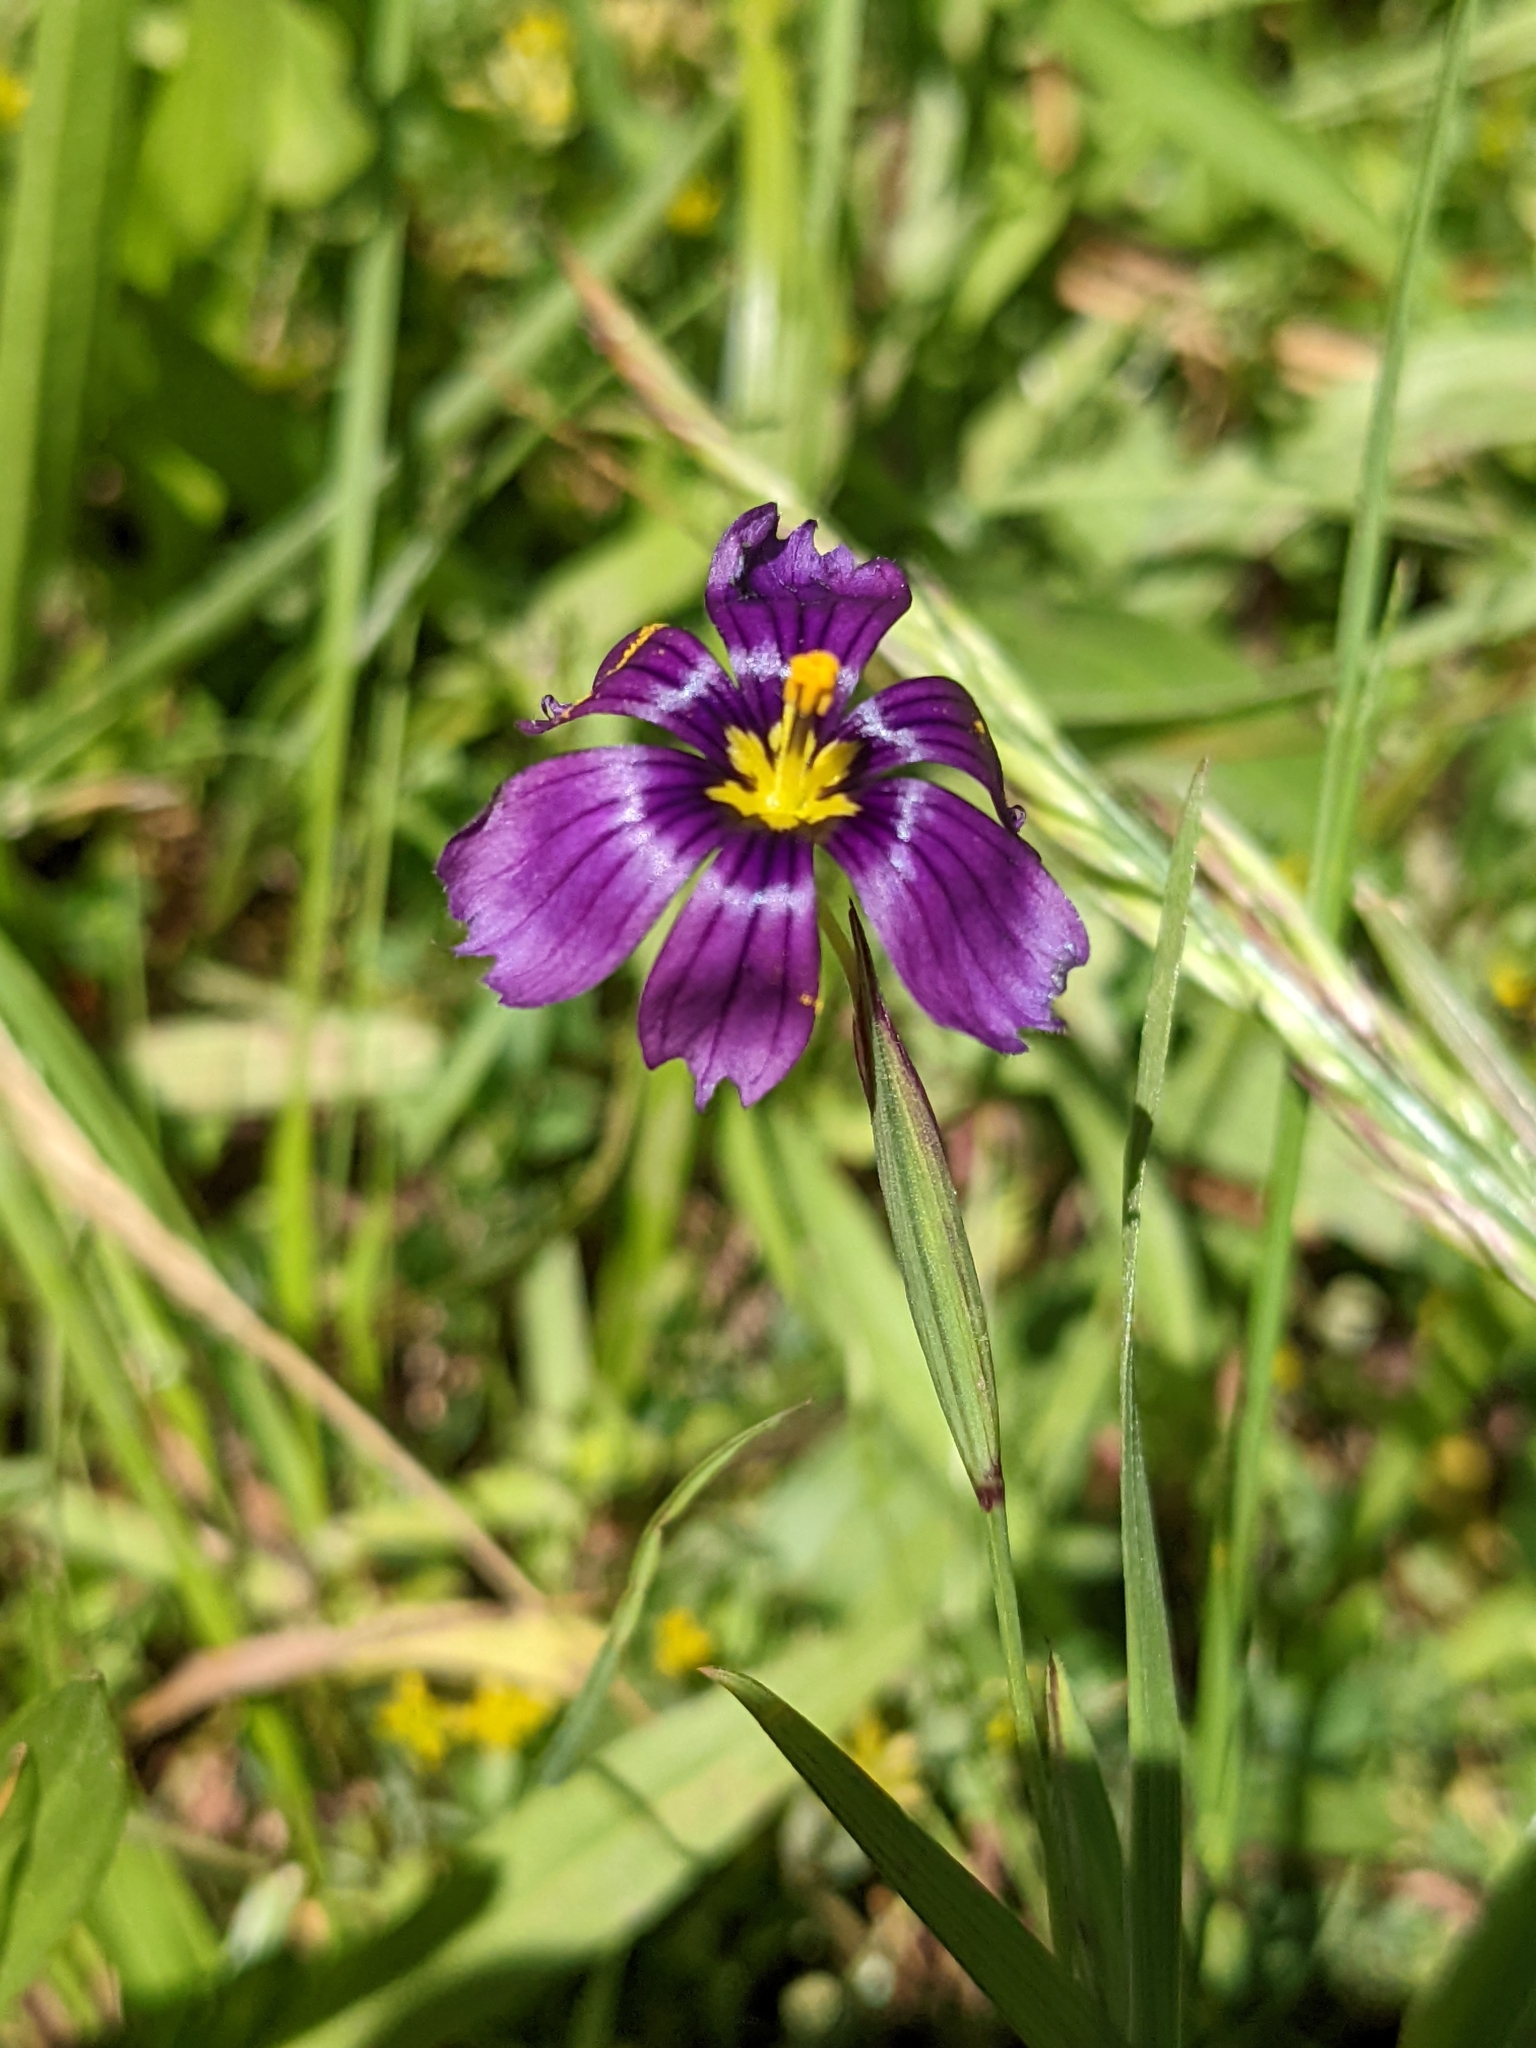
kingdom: Plantae
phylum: Tracheophyta
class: Liliopsida
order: Asparagales
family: Iridaceae
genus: Sisyrinchium
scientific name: Sisyrinchium bellum
